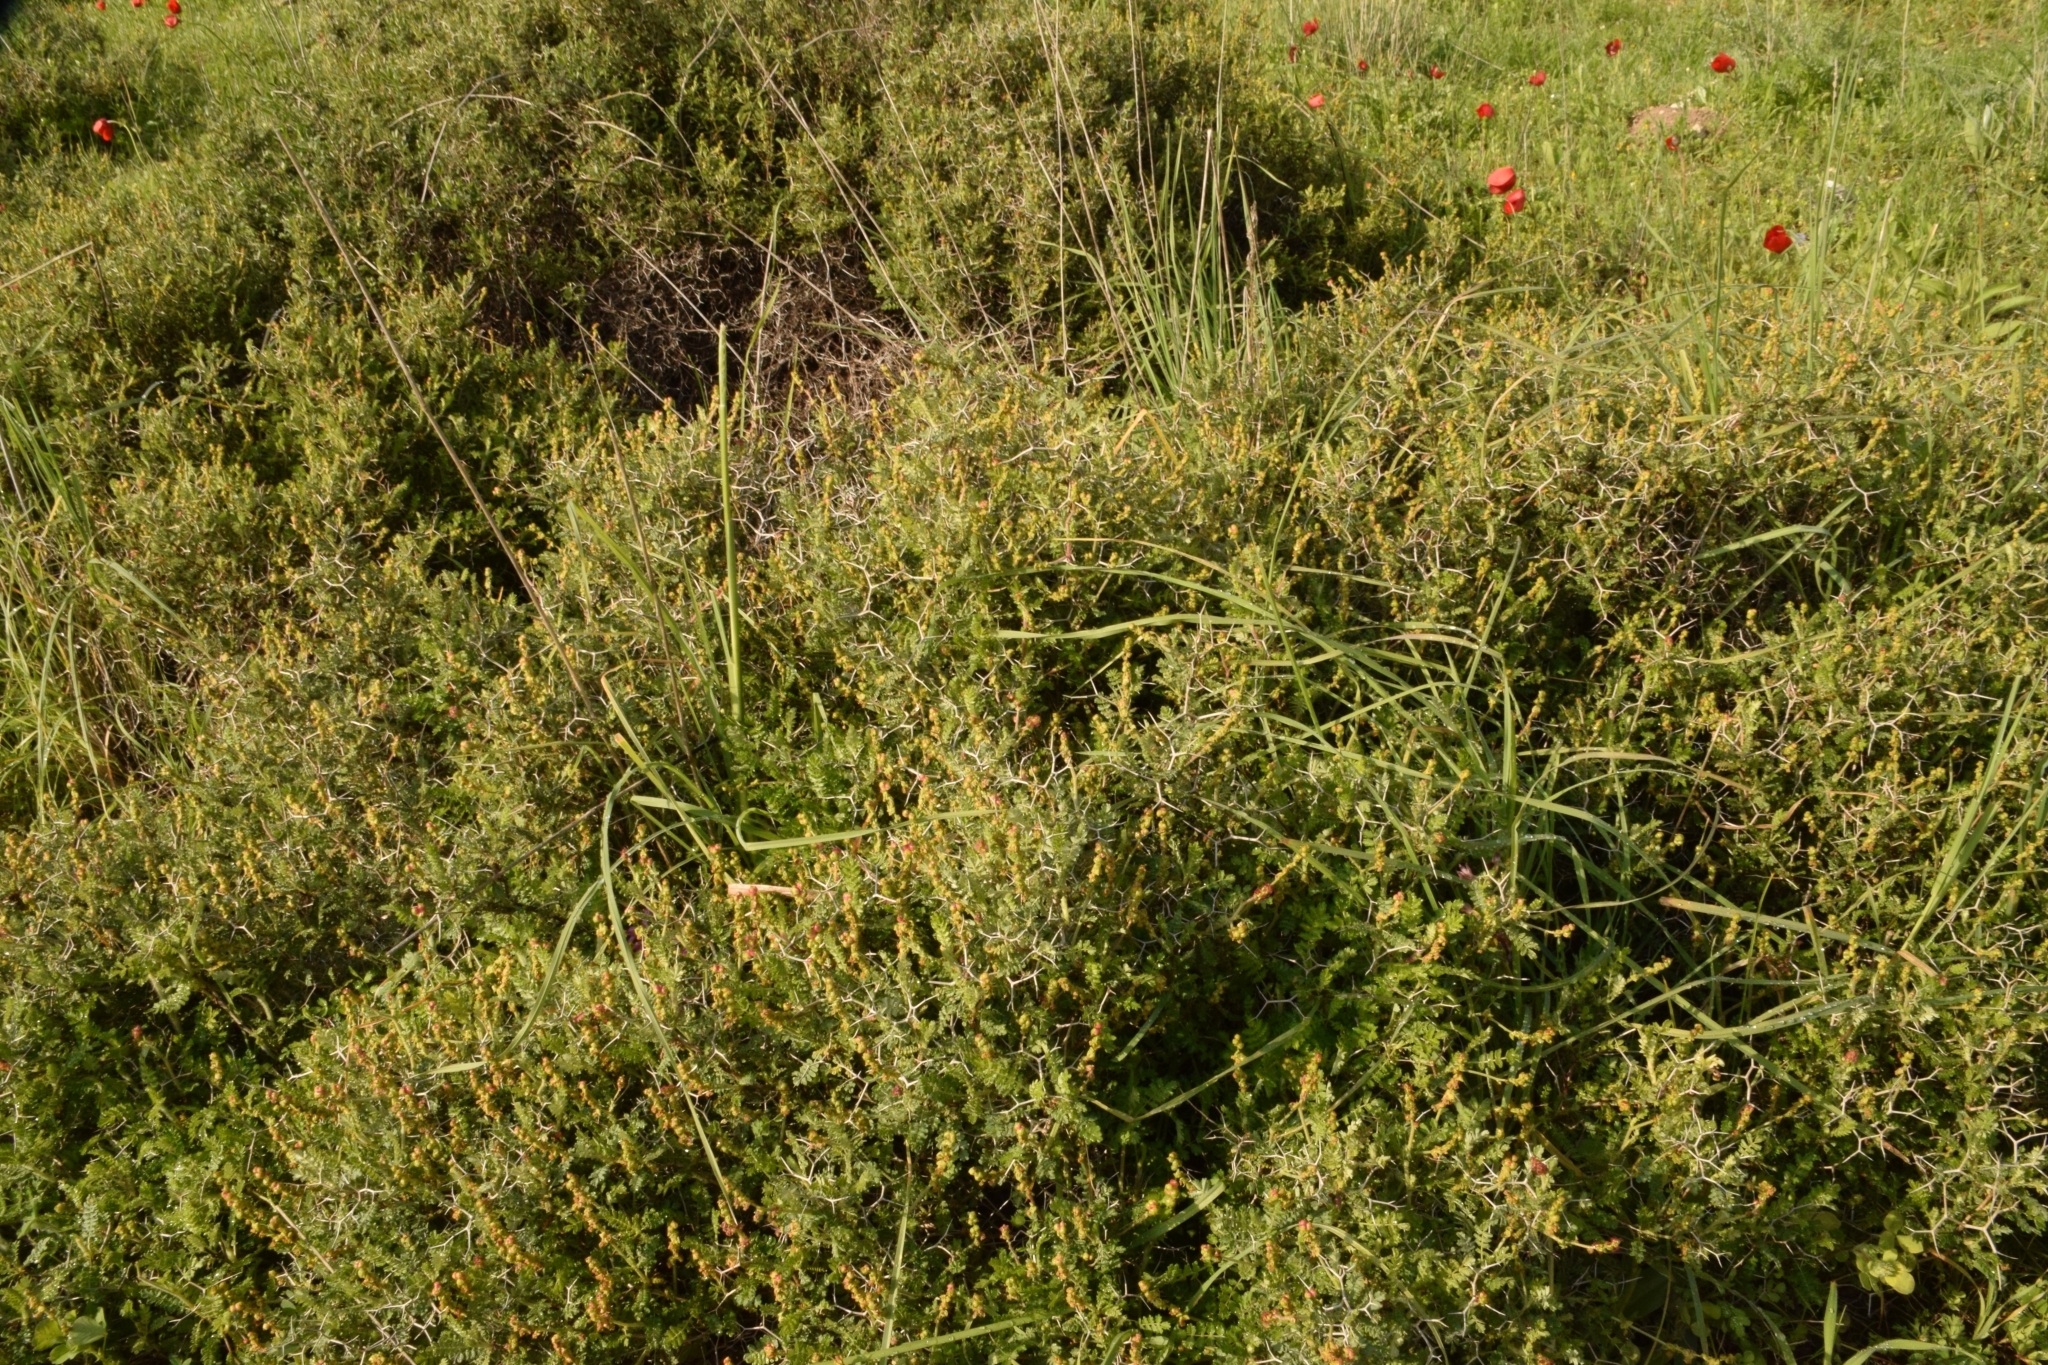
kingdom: Plantae
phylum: Tracheophyta
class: Magnoliopsida
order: Rosales
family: Rosaceae
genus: Sarcopoterium
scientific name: Sarcopoterium spinosum
